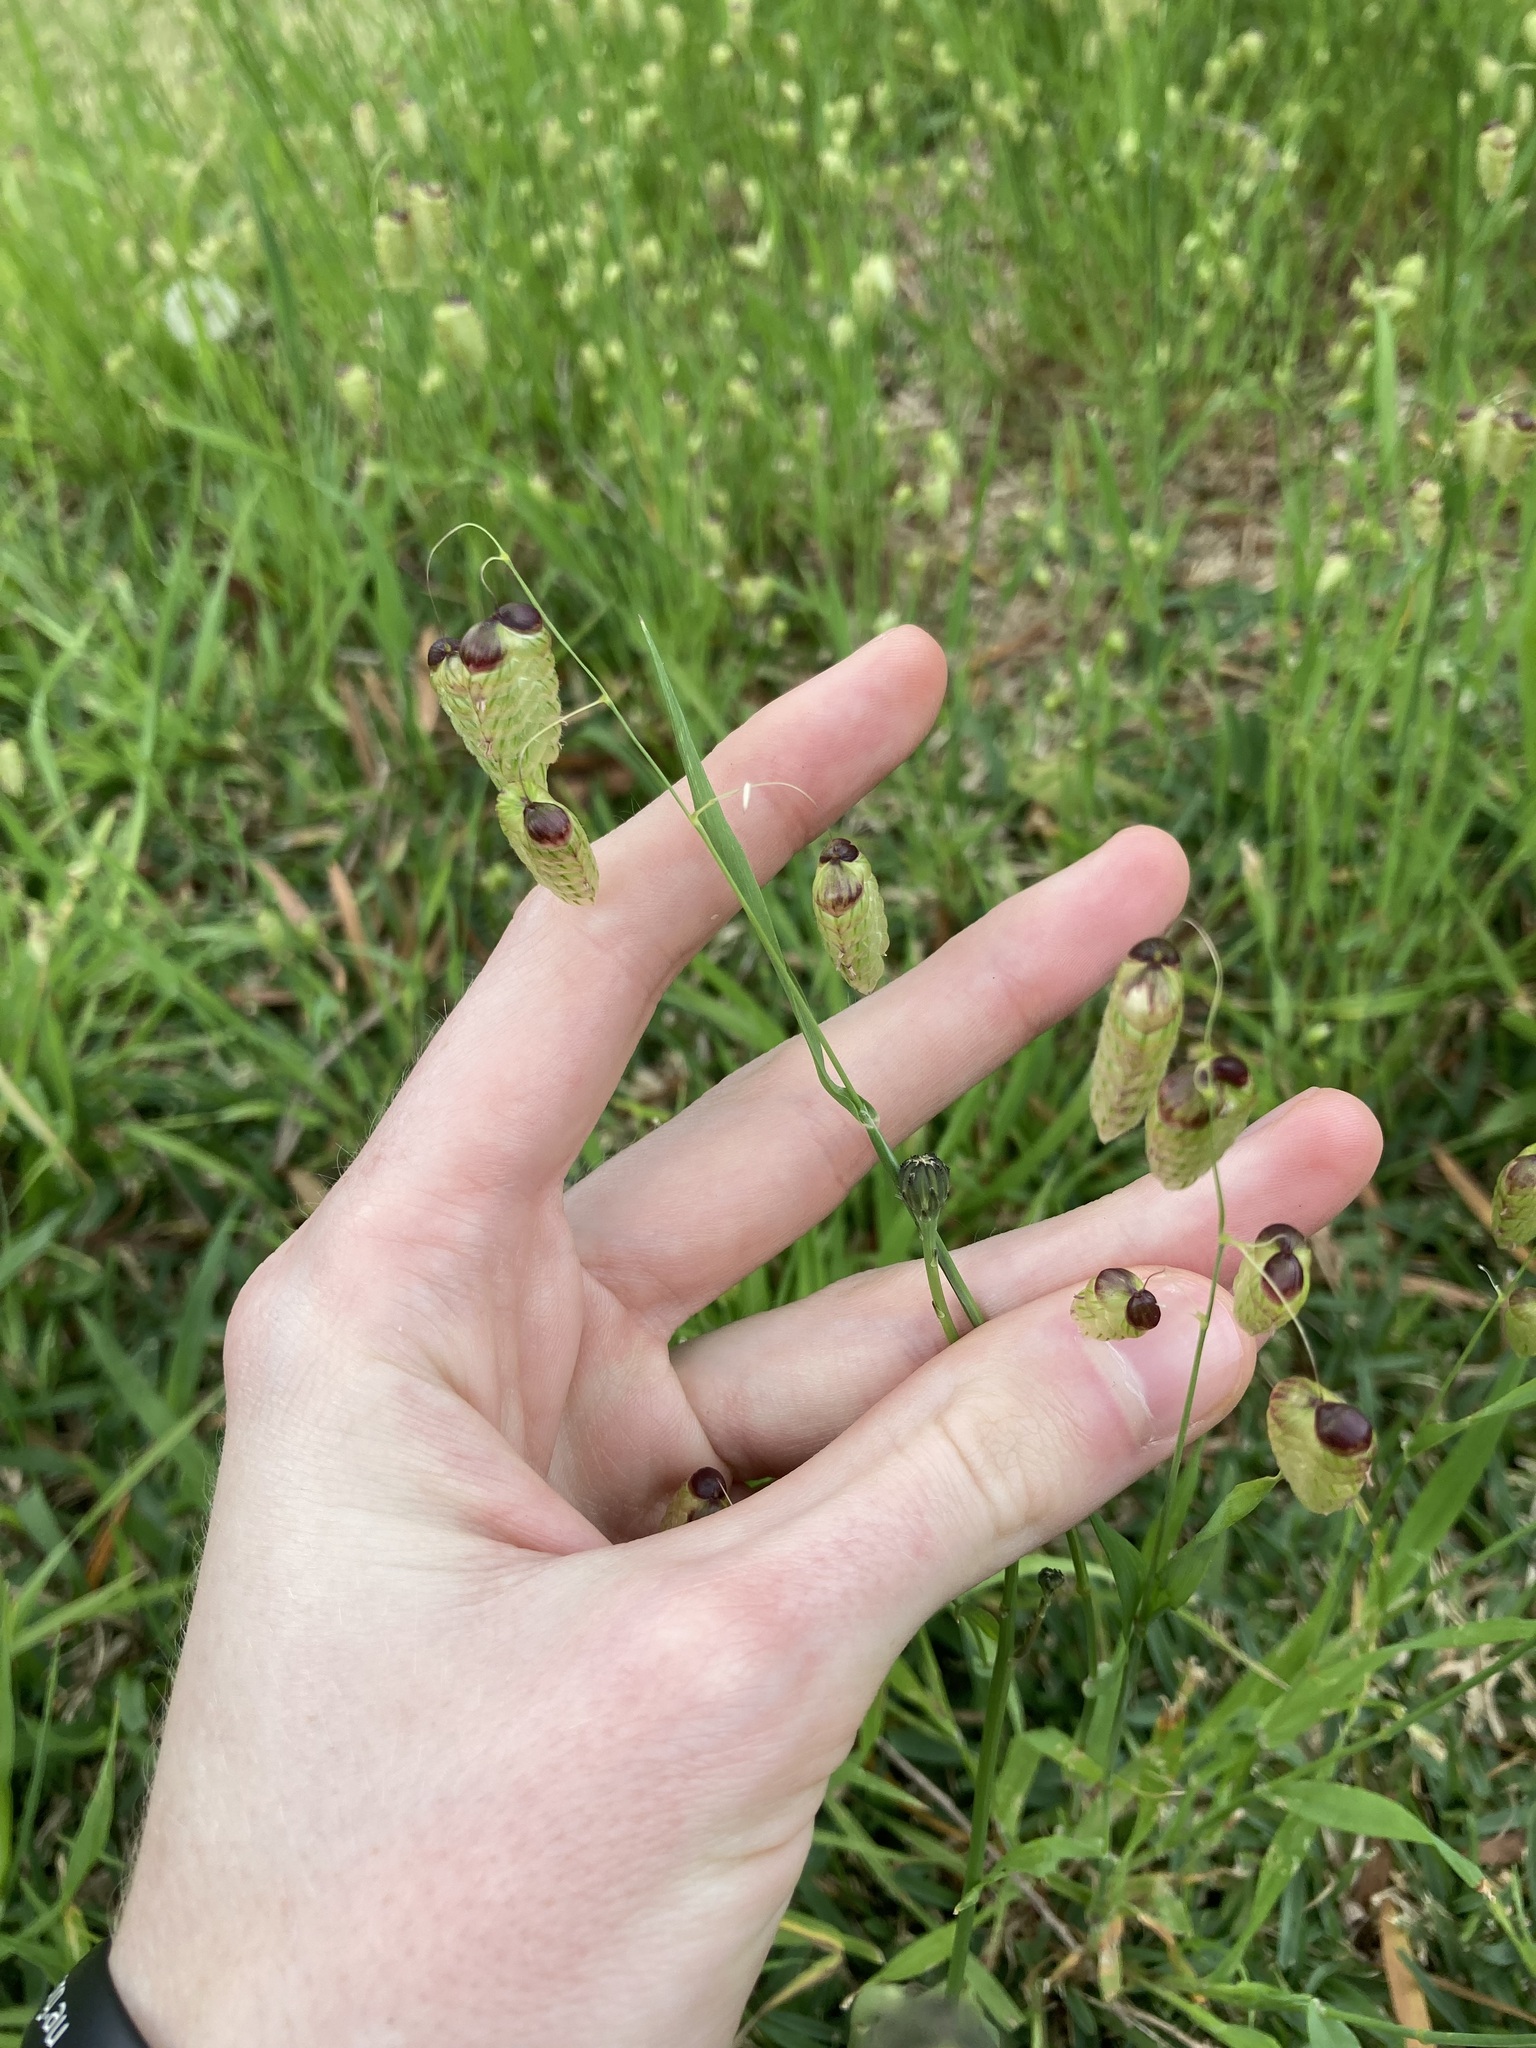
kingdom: Plantae
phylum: Tracheophyta
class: Liliopsida
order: Poales
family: Poaceae
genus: Briza
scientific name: Briza maxima
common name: Big quakinggrass
